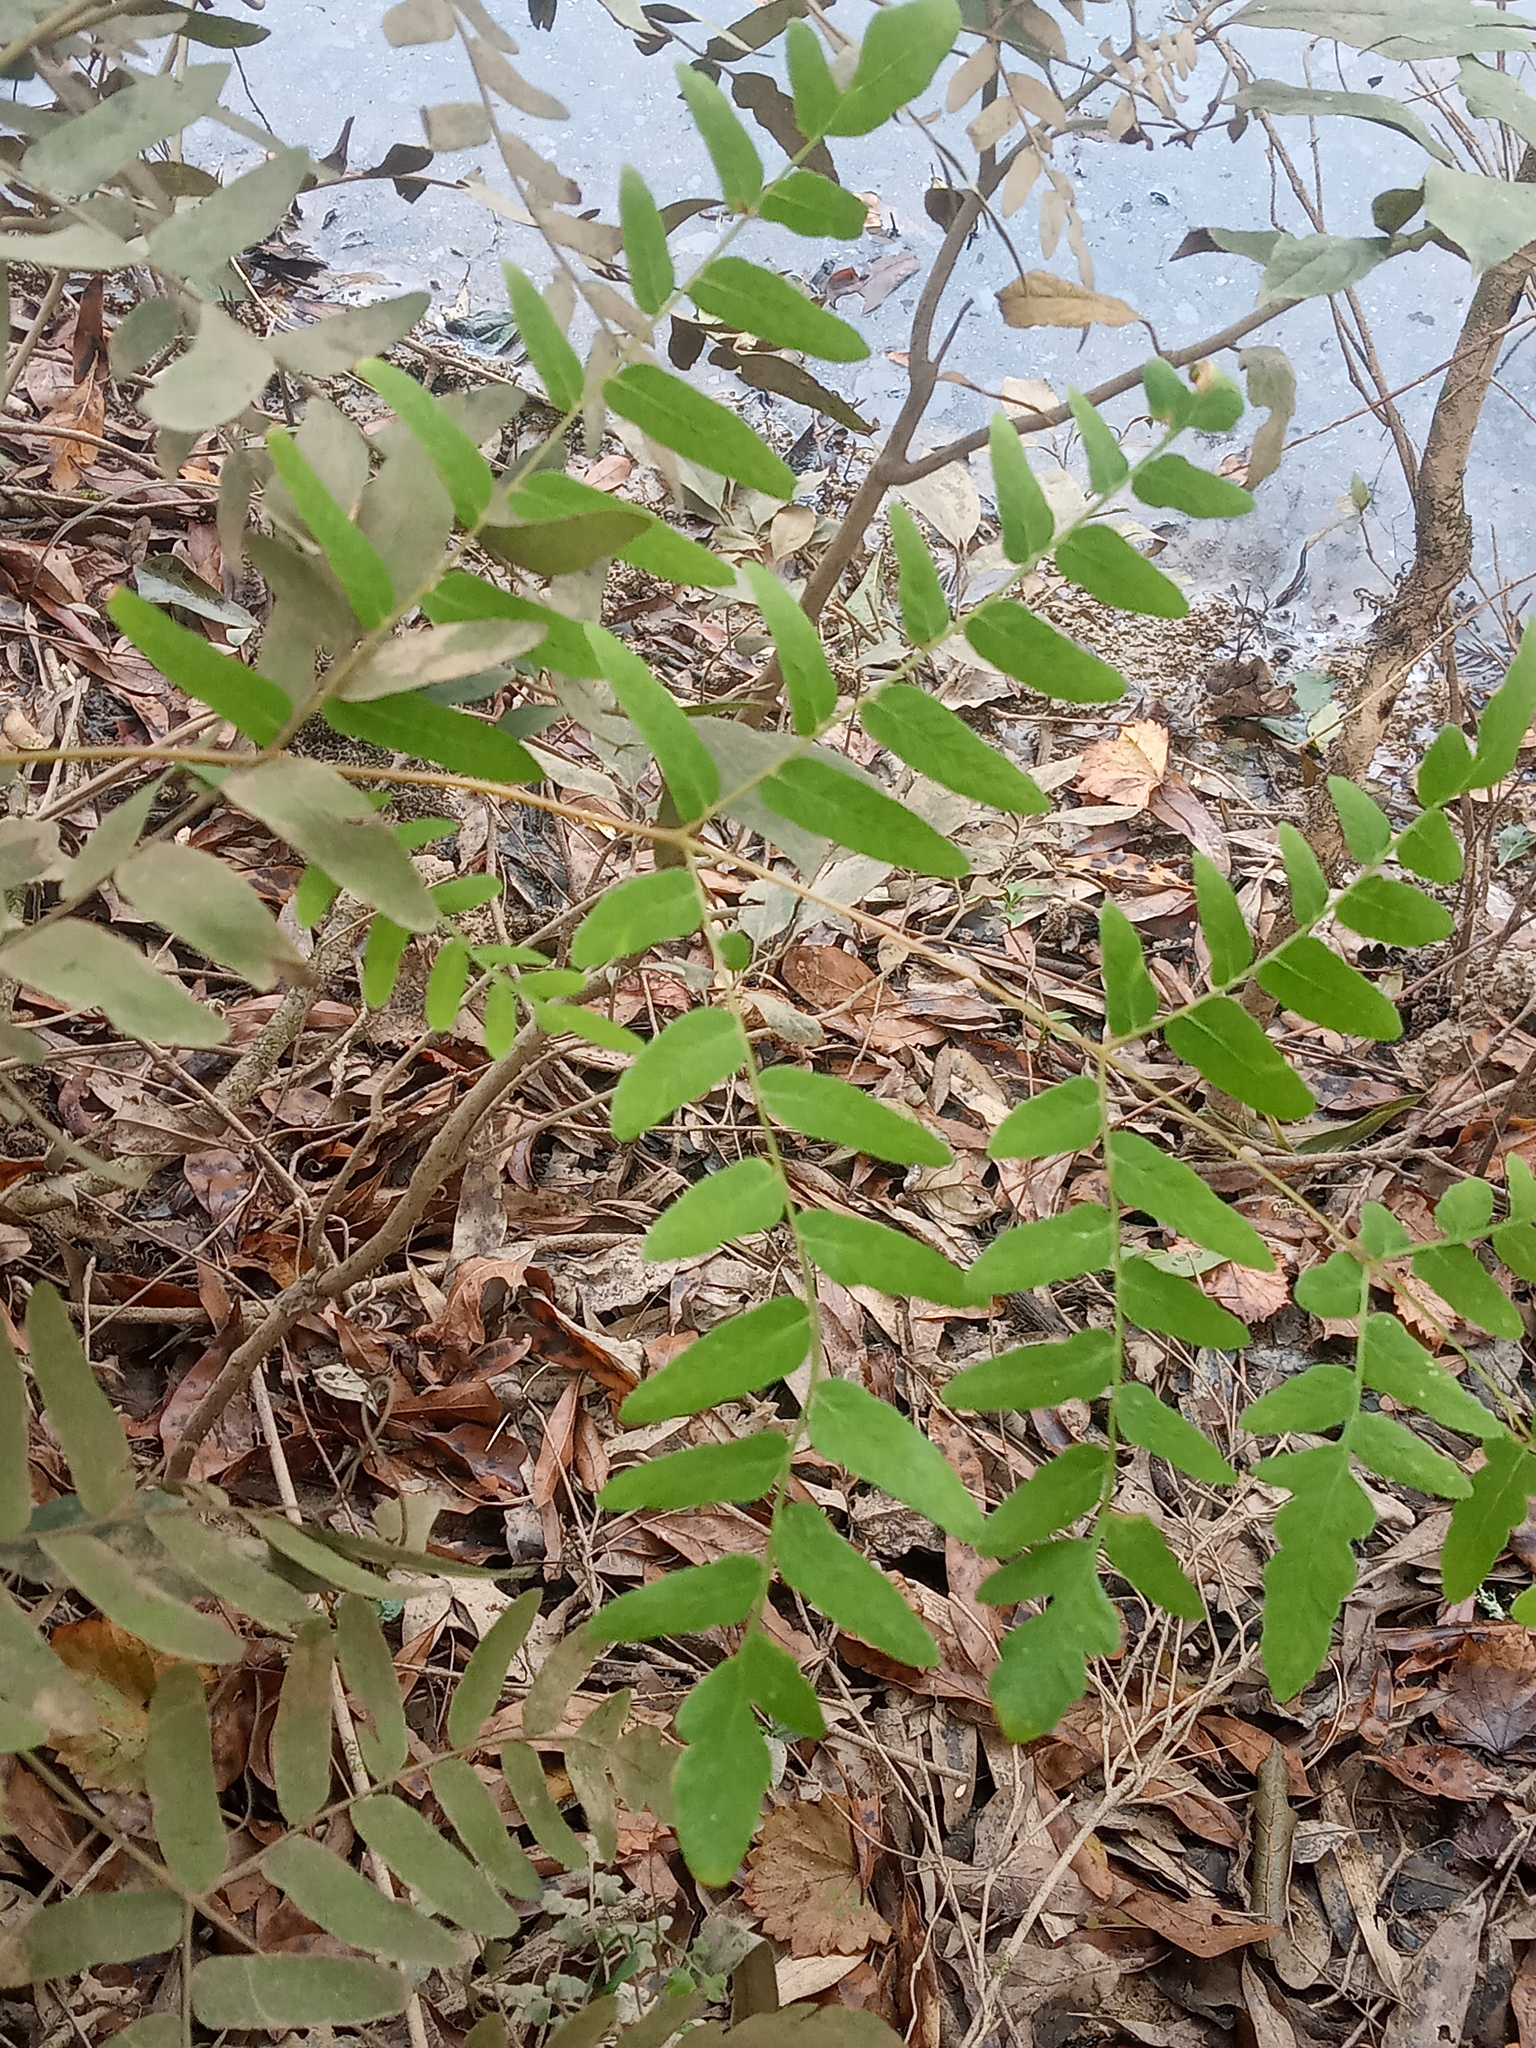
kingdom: Plantae
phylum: Tracheophyta
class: Polypodiopsida
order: Osmundales
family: Osmundaceae
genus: Osmunda
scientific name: Osmunda spectabilis
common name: American royal fern
